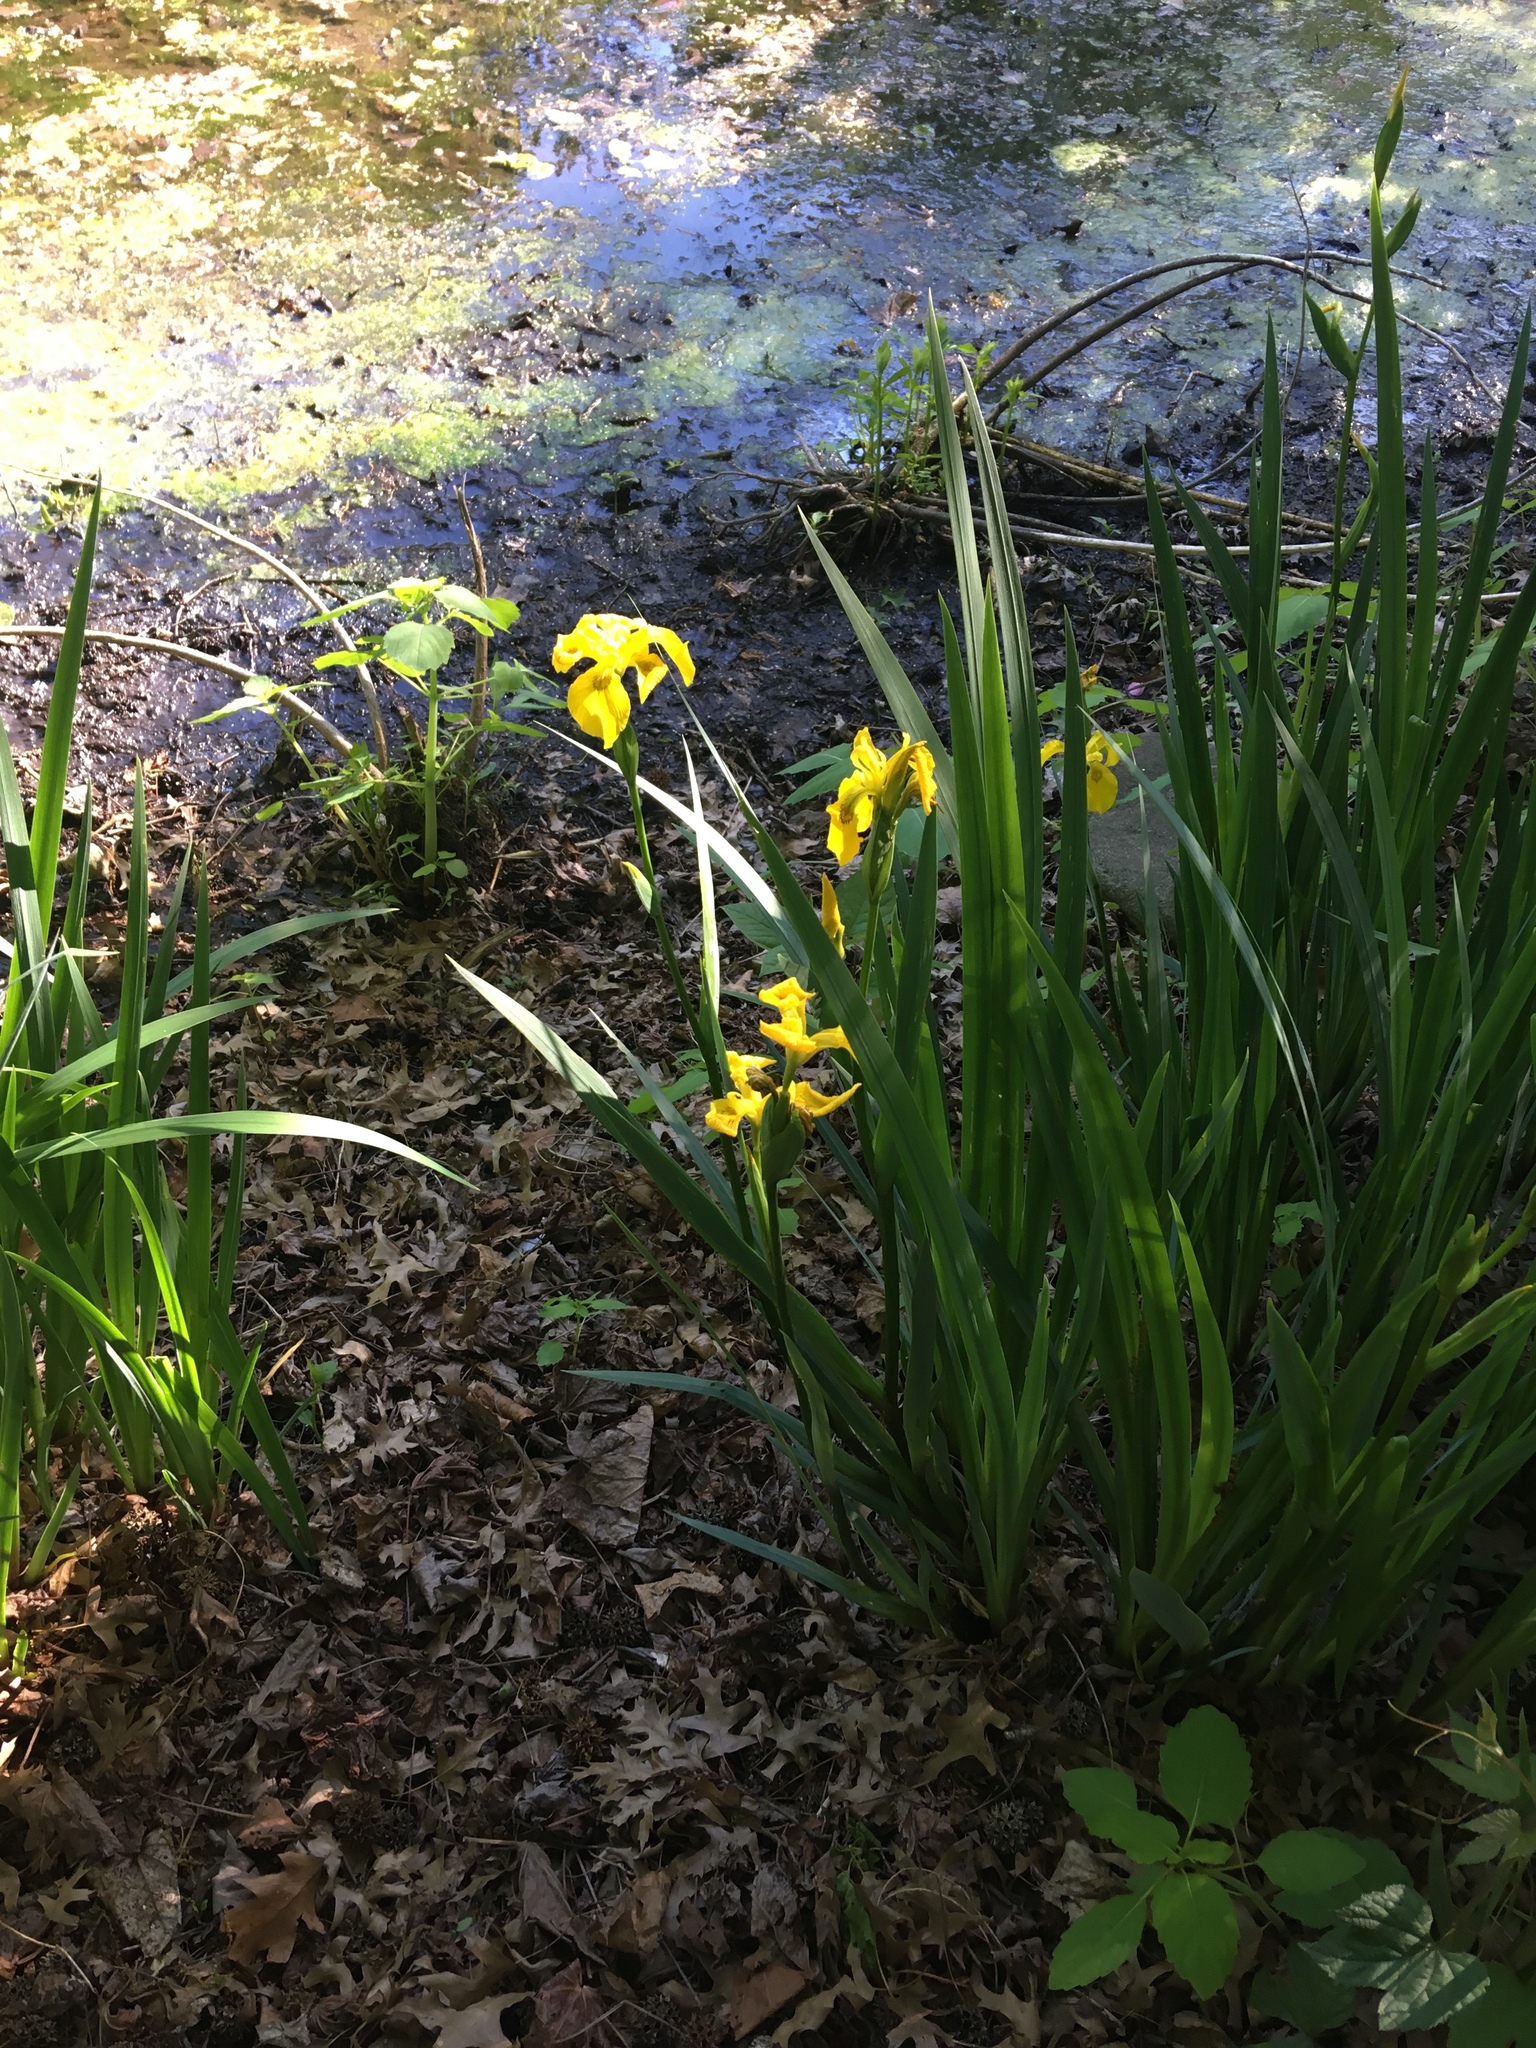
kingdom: Plantae
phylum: Tracheophyta
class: Liliopsida
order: Asparagales
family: Iridaceae
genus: Iris
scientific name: Iris pseudacorus
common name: Yellow flag
